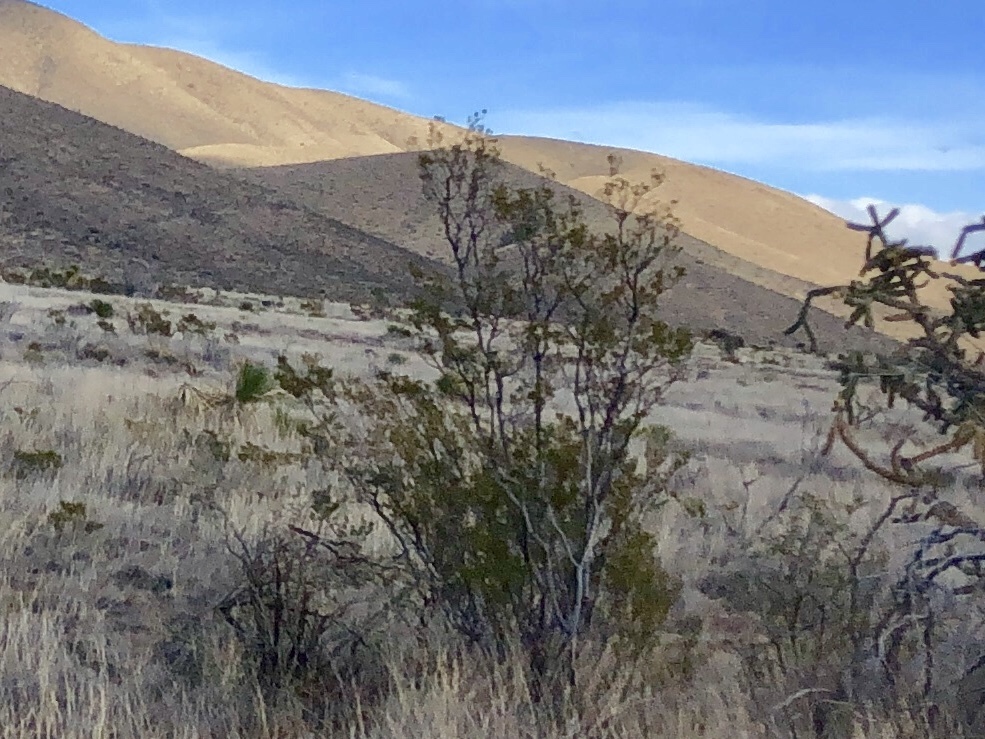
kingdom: Plantae
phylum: Tracheophyta
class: Magnoliopsida
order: Zygophyllales
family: Zygophyllaceae
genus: Larrea
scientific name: Larrea tridentata
